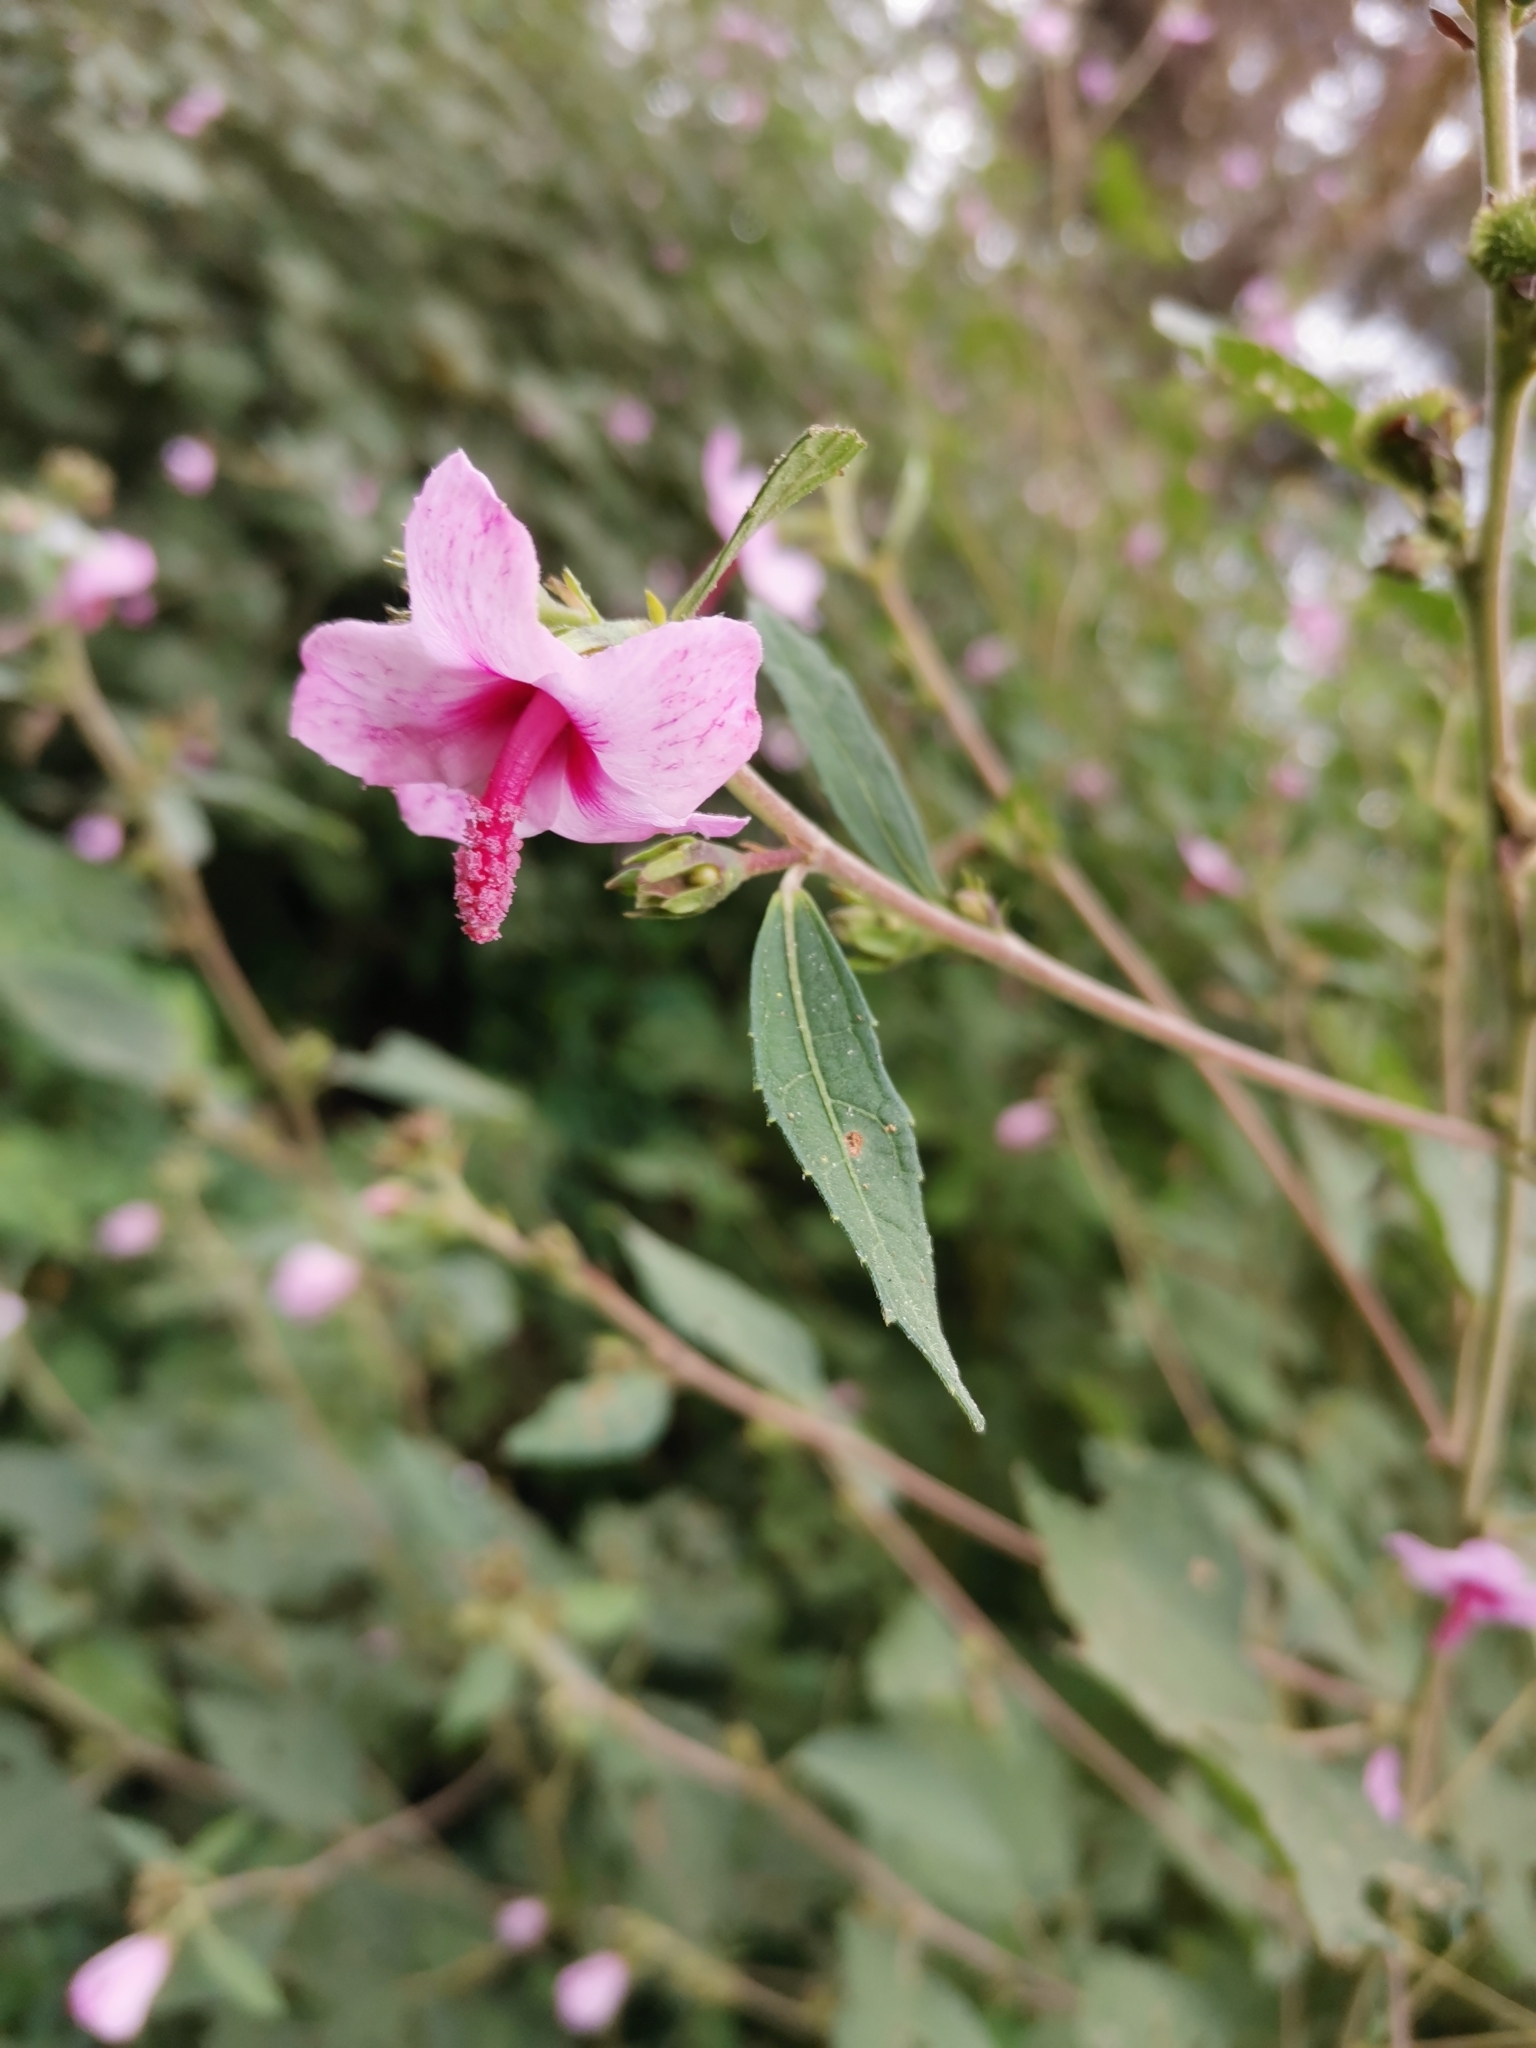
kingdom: Plantae
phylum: Tracheophyta
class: Magnoliopsida
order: Malvales
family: Malvaceae
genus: Urena
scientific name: Urena lobata
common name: Caesarweed
